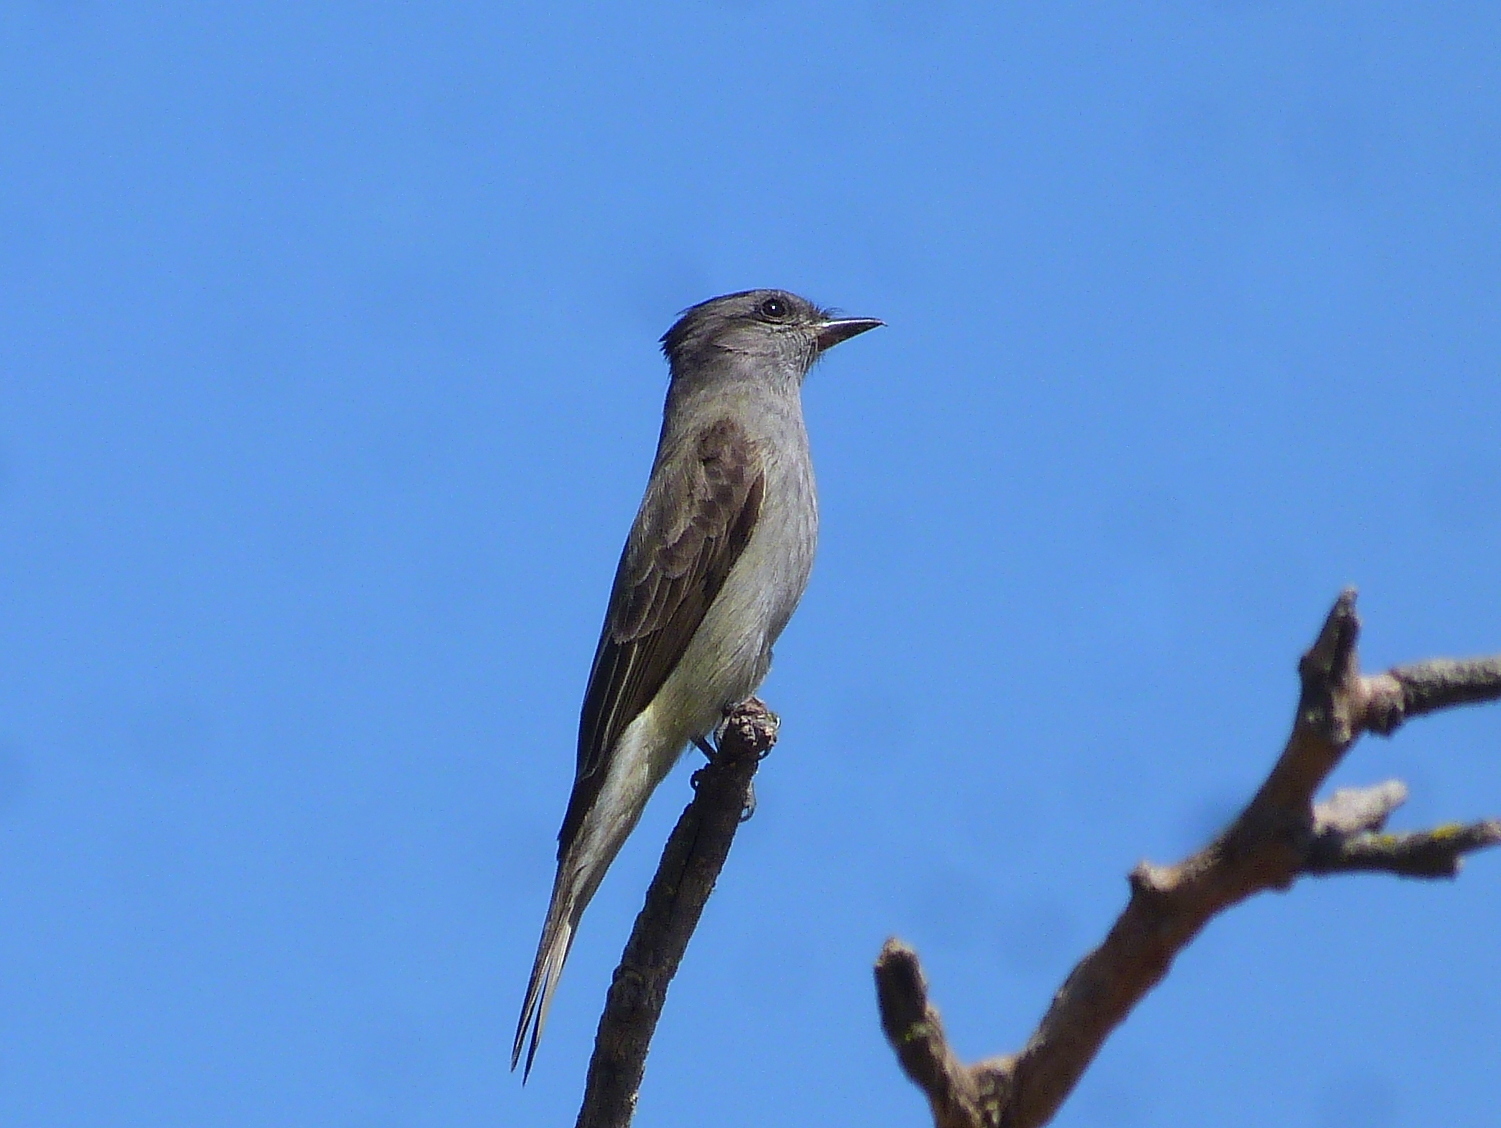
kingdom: Animalia
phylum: Chordata
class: Aves
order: Passeriformes
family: Tyrannidae
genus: Empidonomus
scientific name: Empidonomus aurantioatrocristatus
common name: Crowned slaty flycatcher
